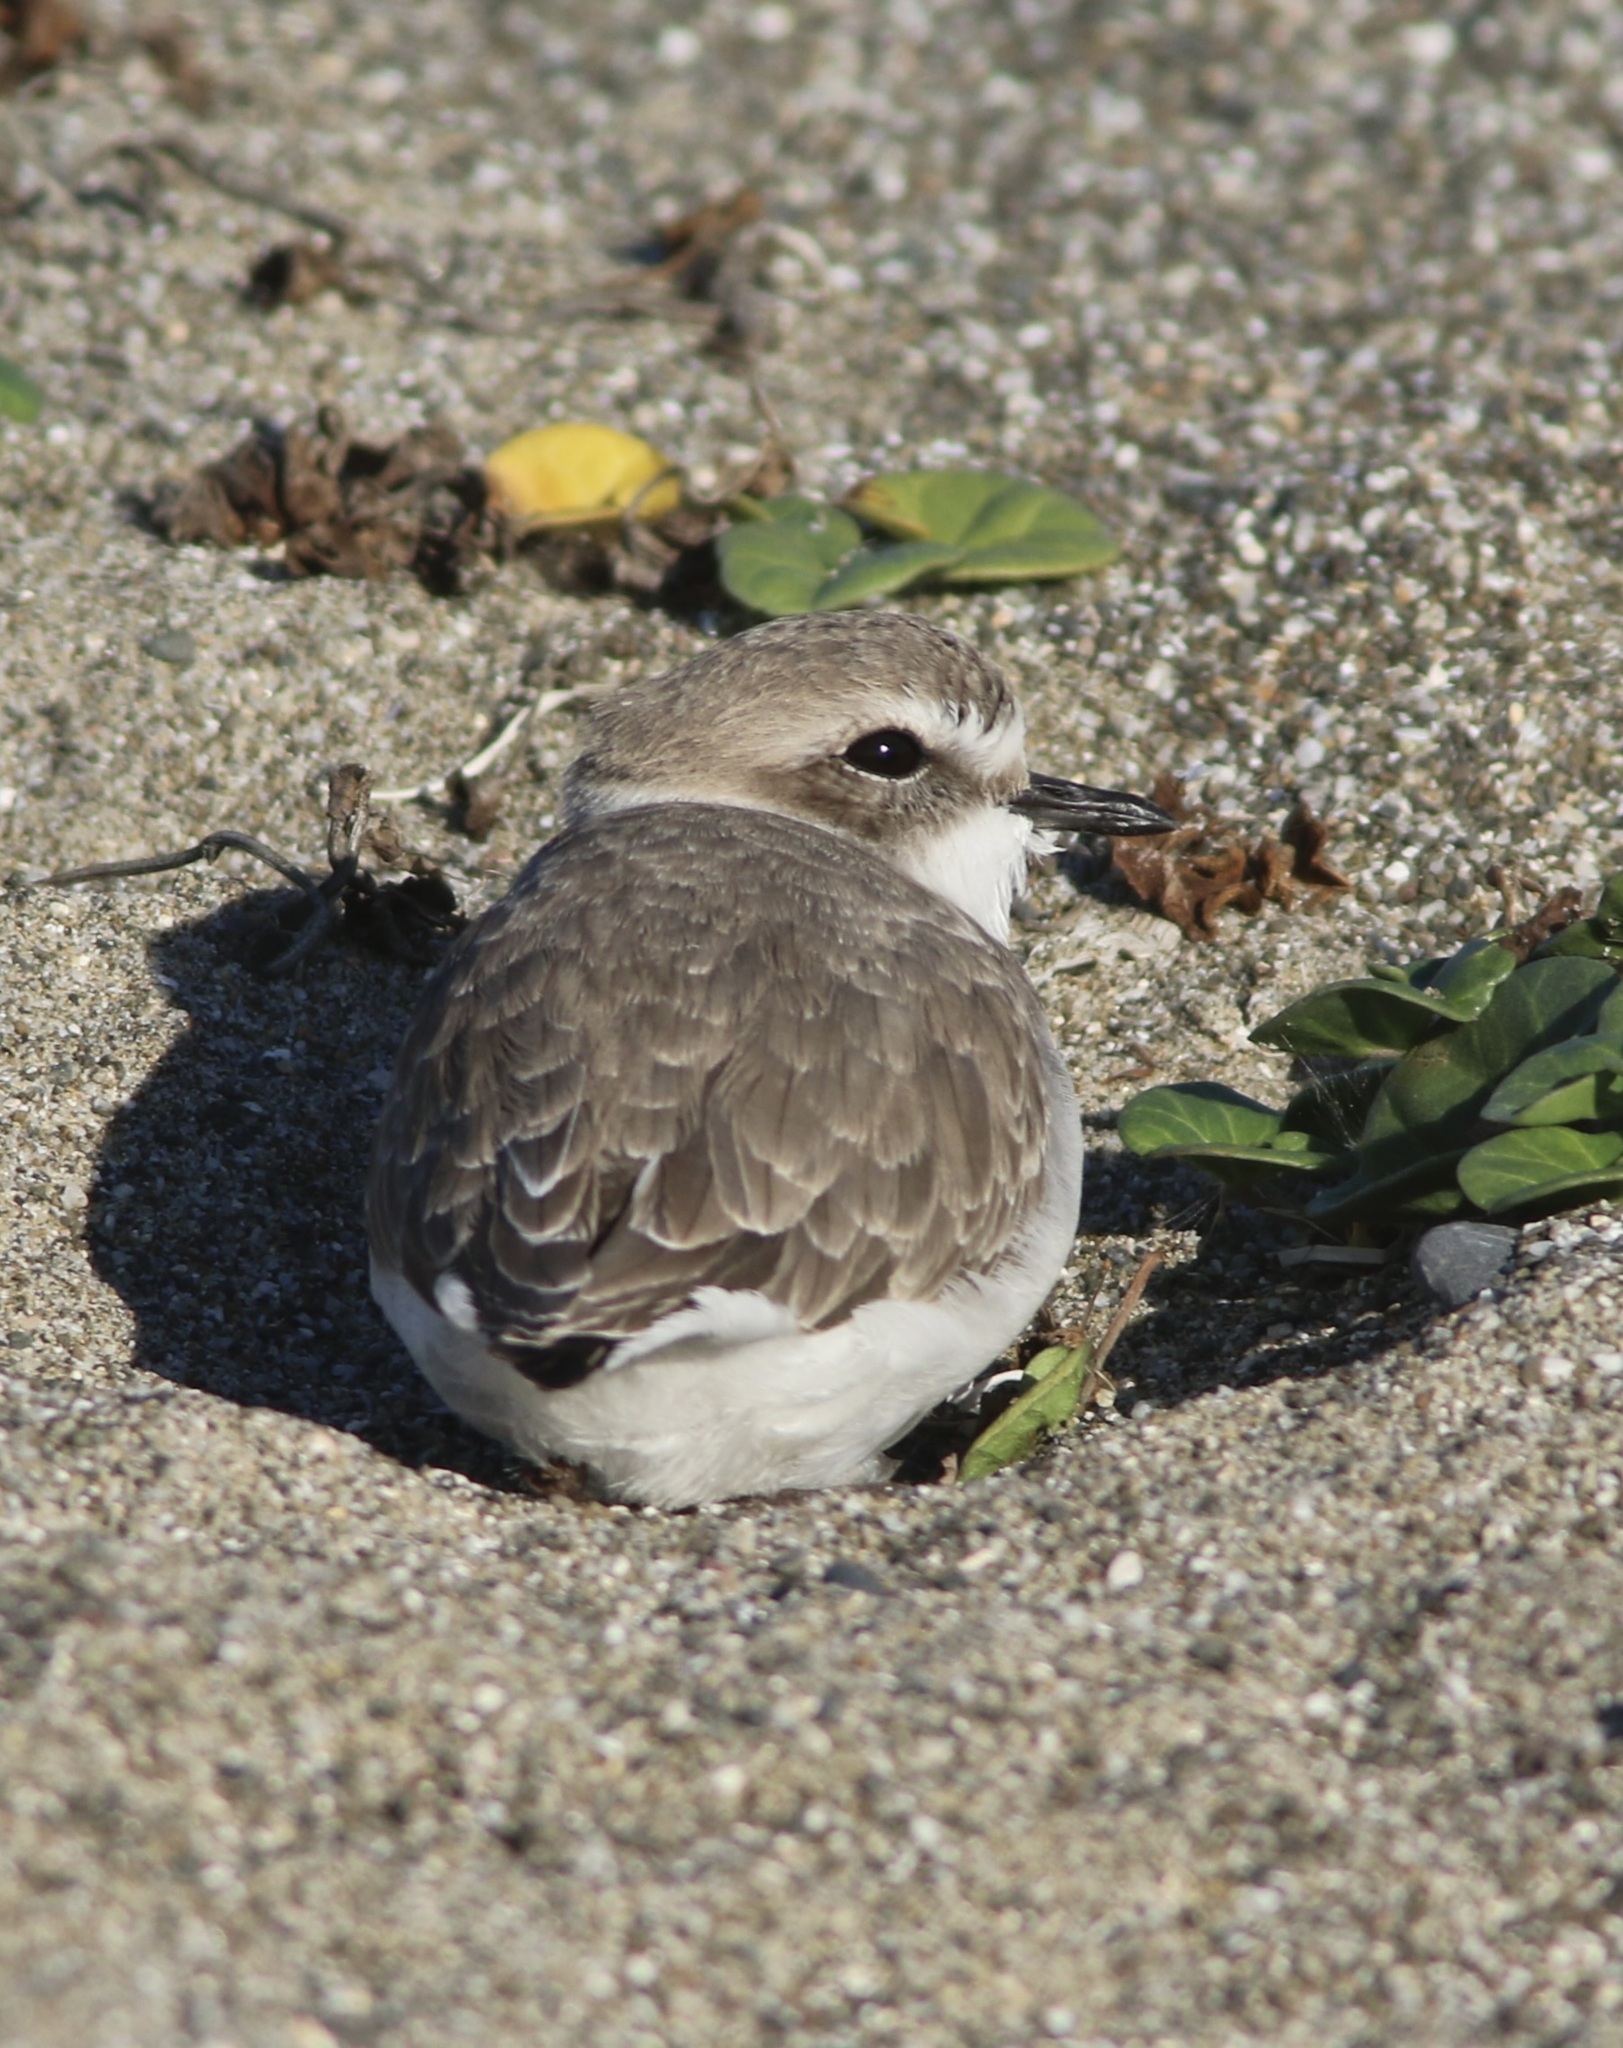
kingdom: Animalia
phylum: Chordata
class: Aves
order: Charadriiformes
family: Charadriidae
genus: Anarhynchus
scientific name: Anarhynchus
